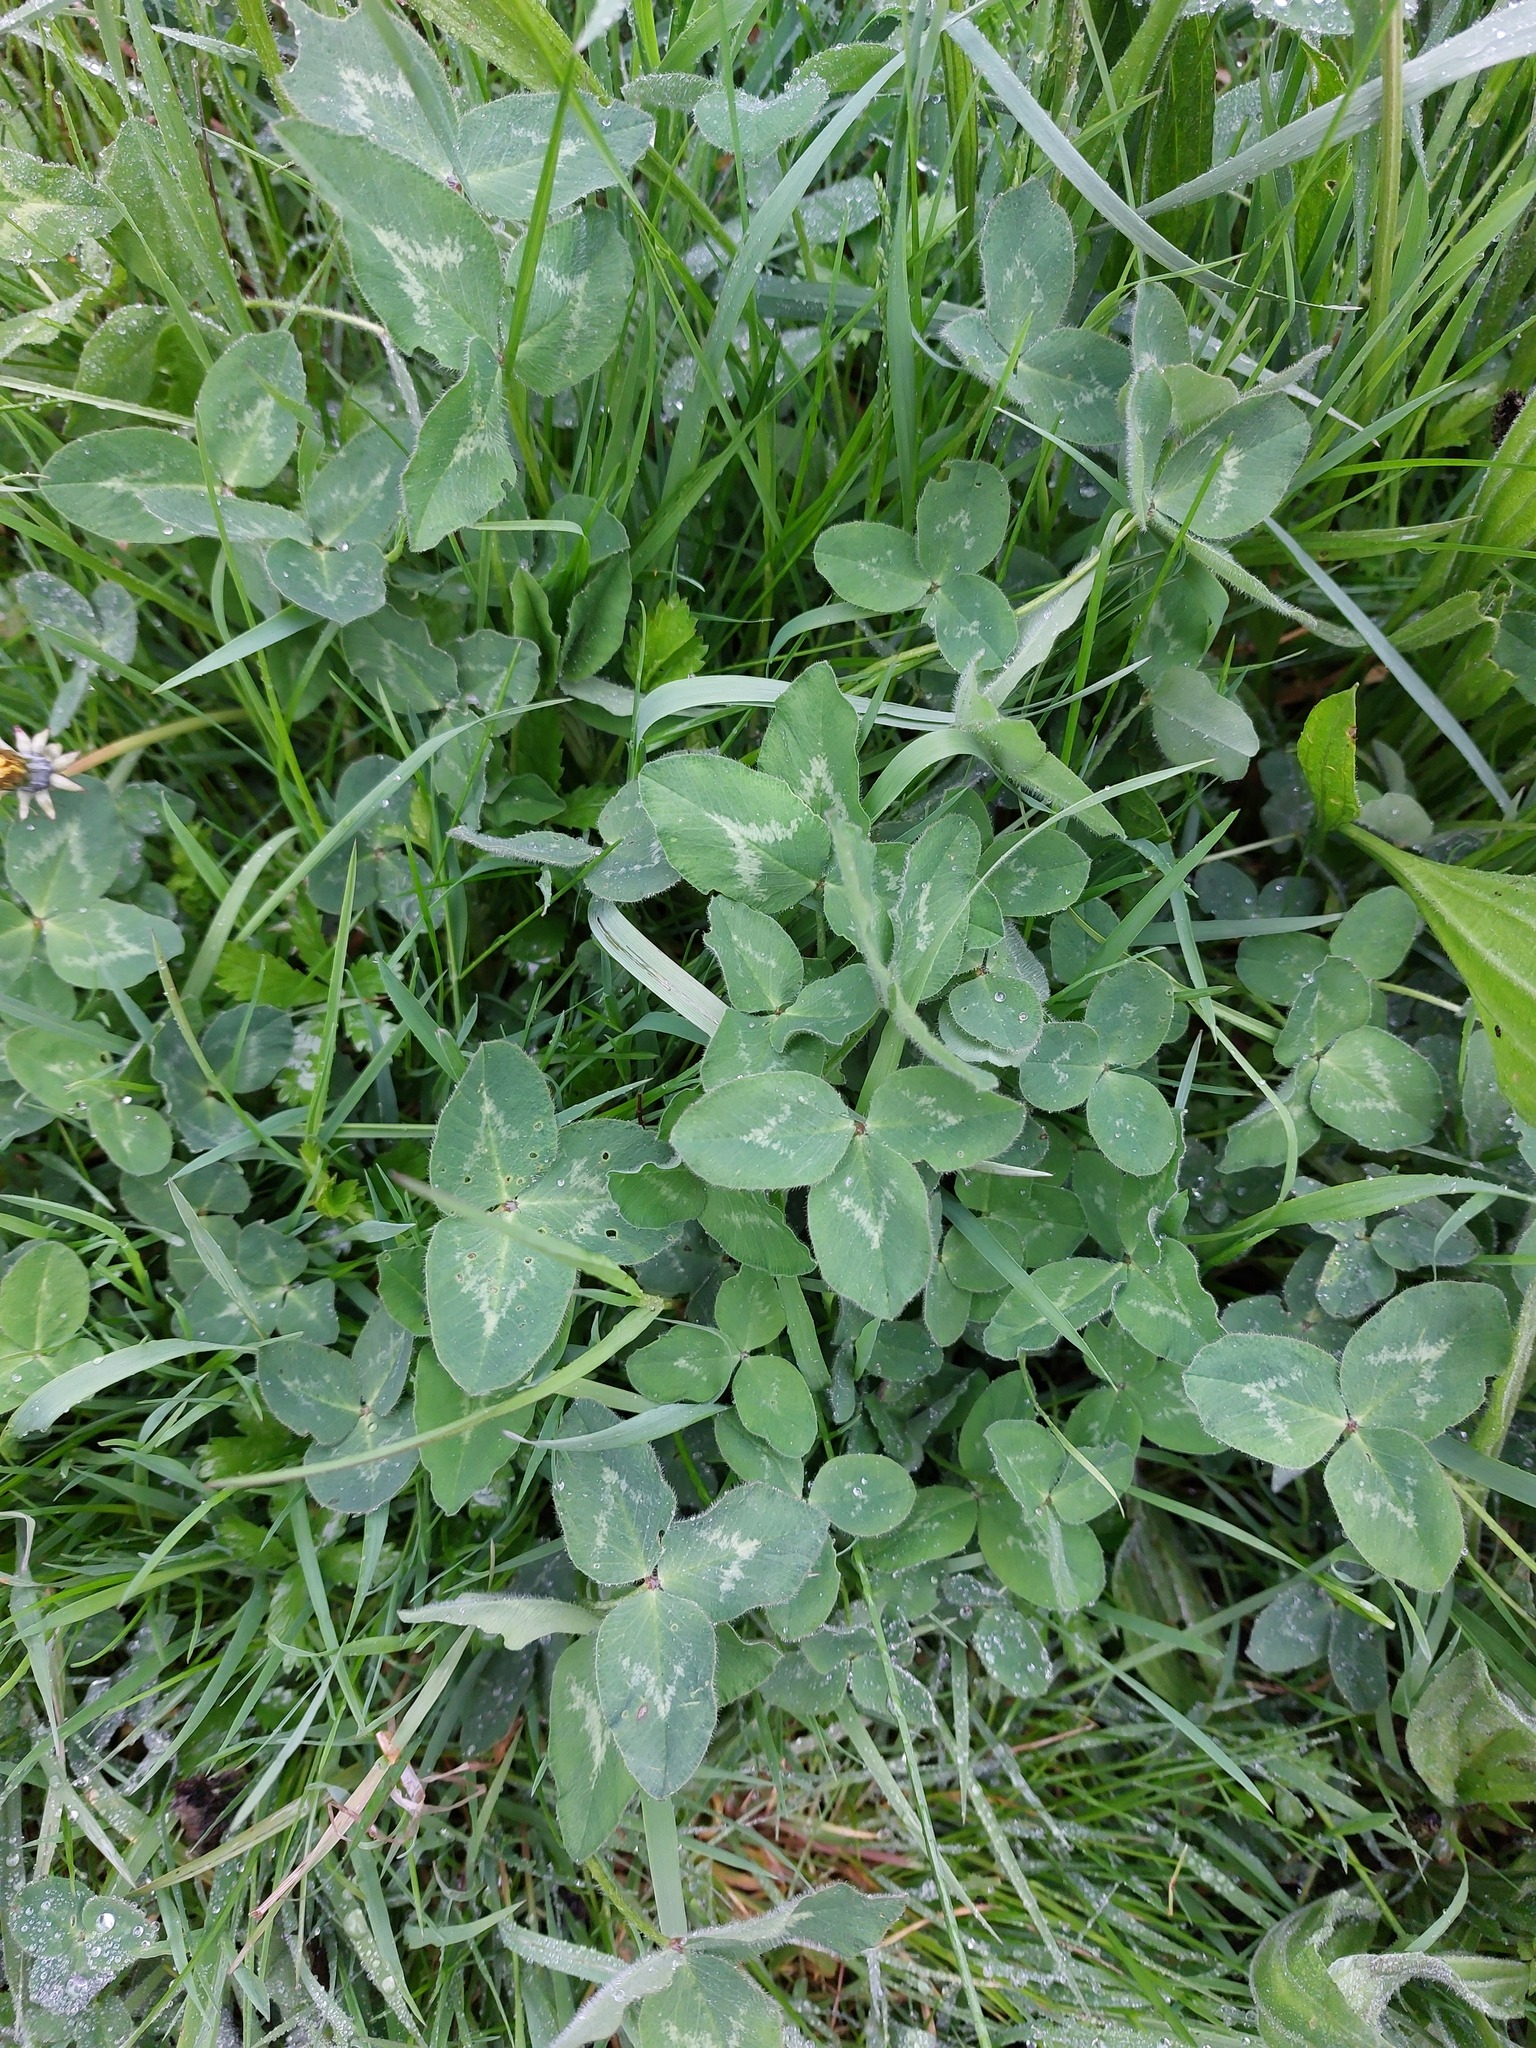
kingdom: Plantae
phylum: Tracheophyta
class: Magnoliopsida
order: Fabales
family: Fabaceae
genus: Trifolium
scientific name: Trifolium pratense
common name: Red clover
